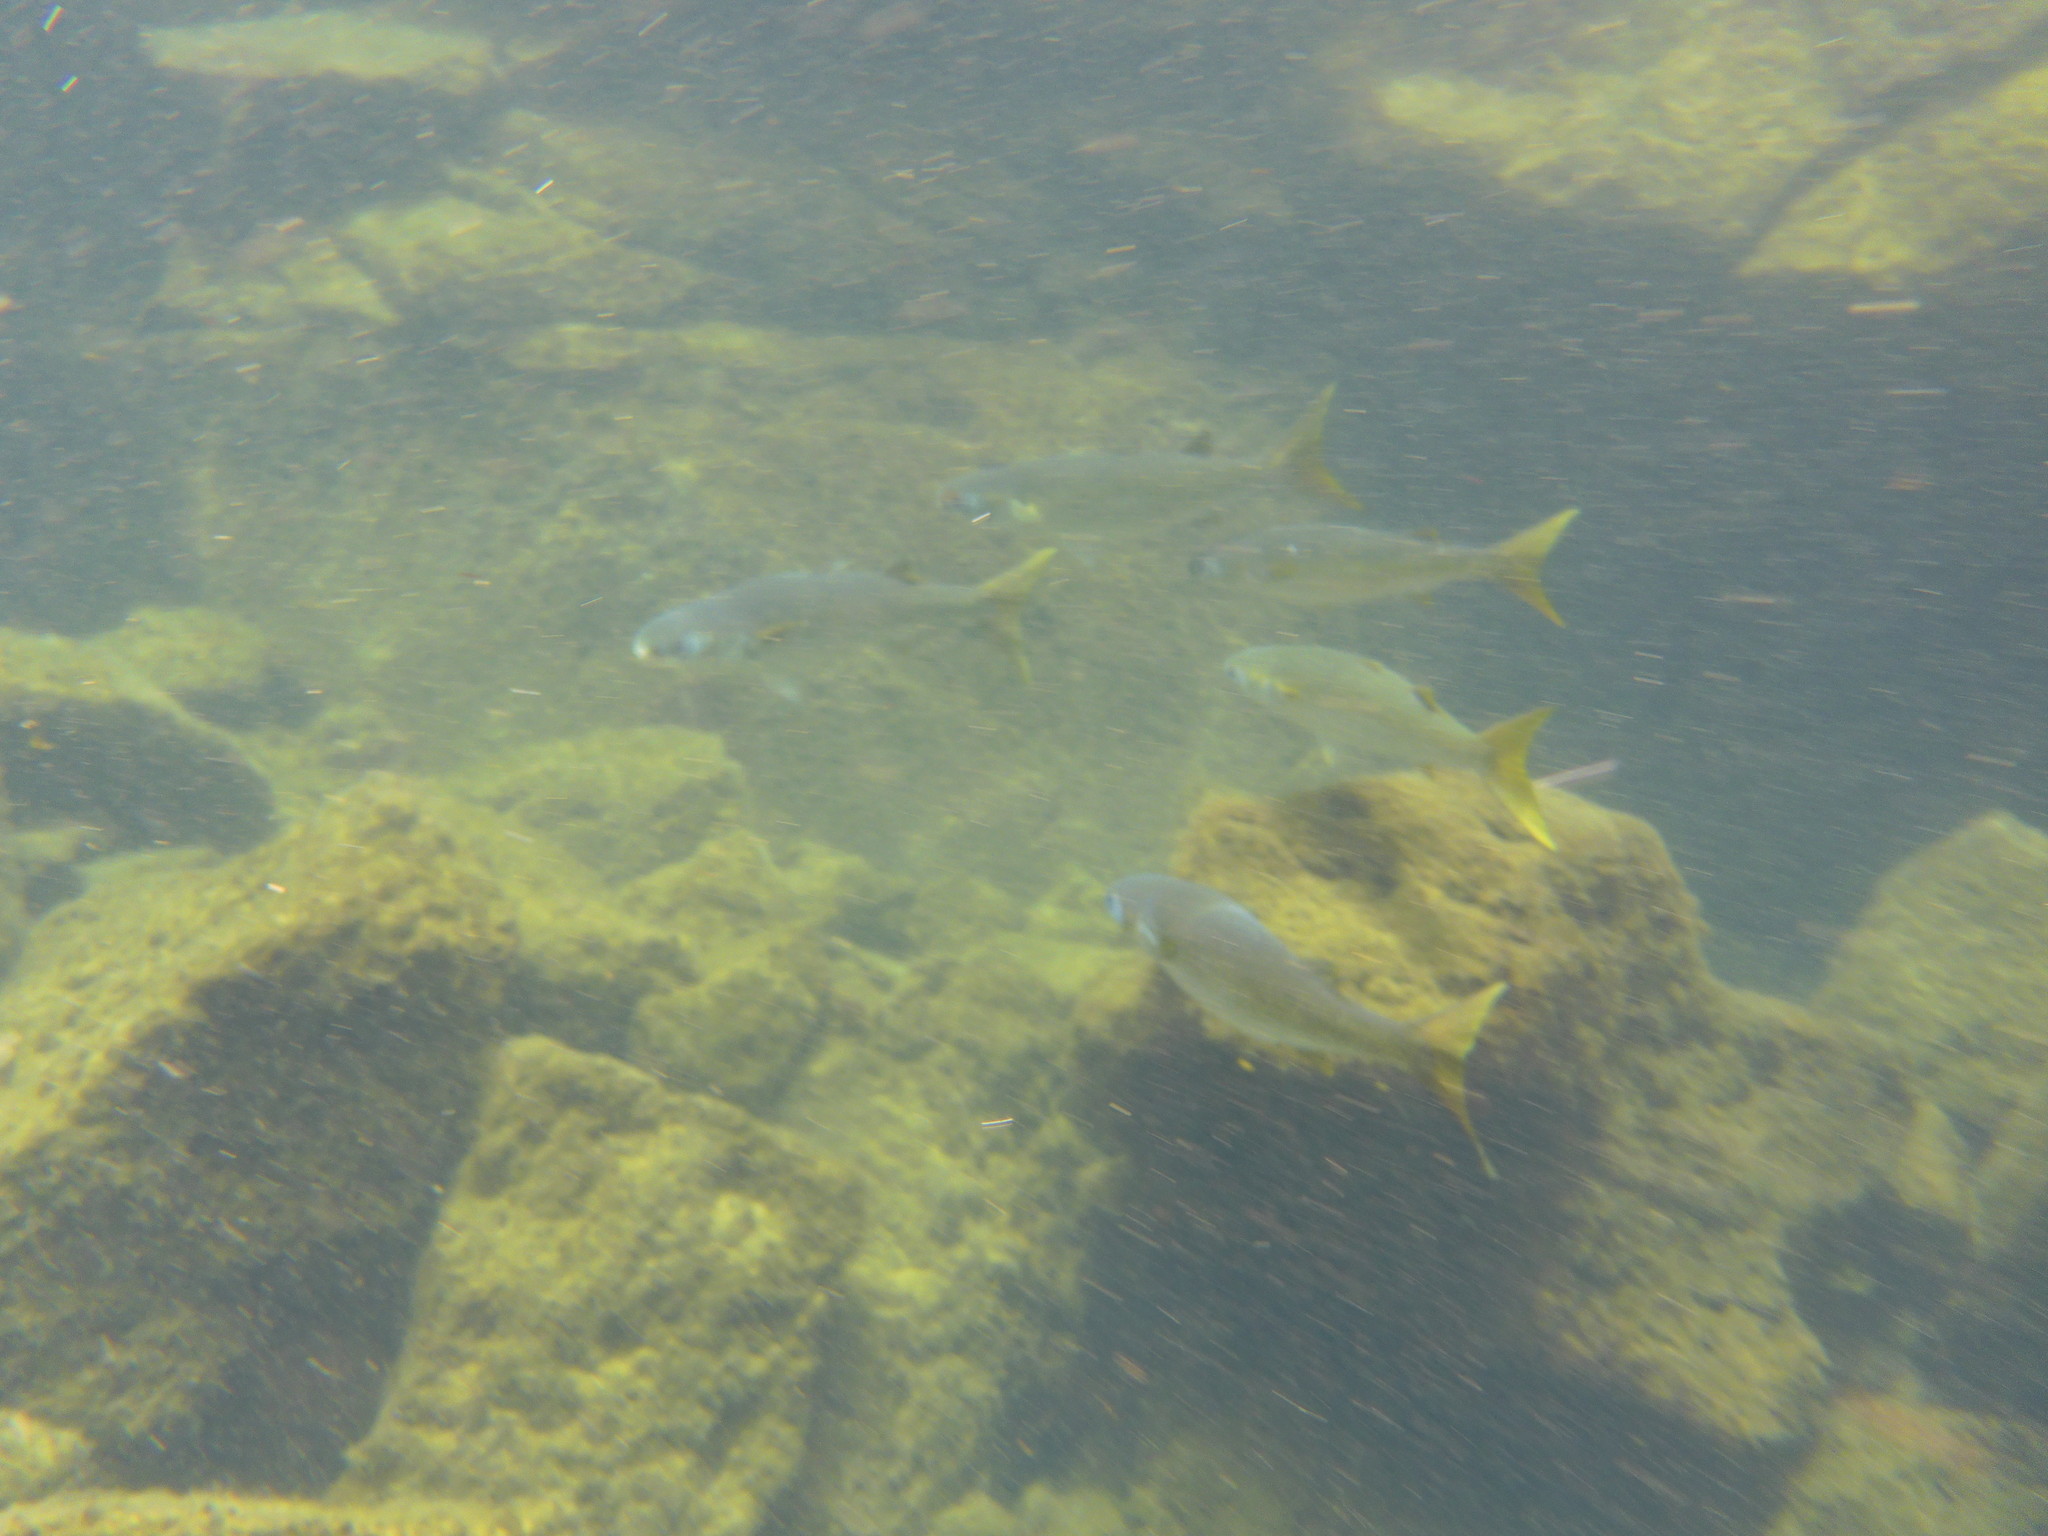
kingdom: Animalia
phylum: Chordata
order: Mugiliformes
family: Mugilidae
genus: Mugil
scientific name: Mugil cephalus
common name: Grey mullet
